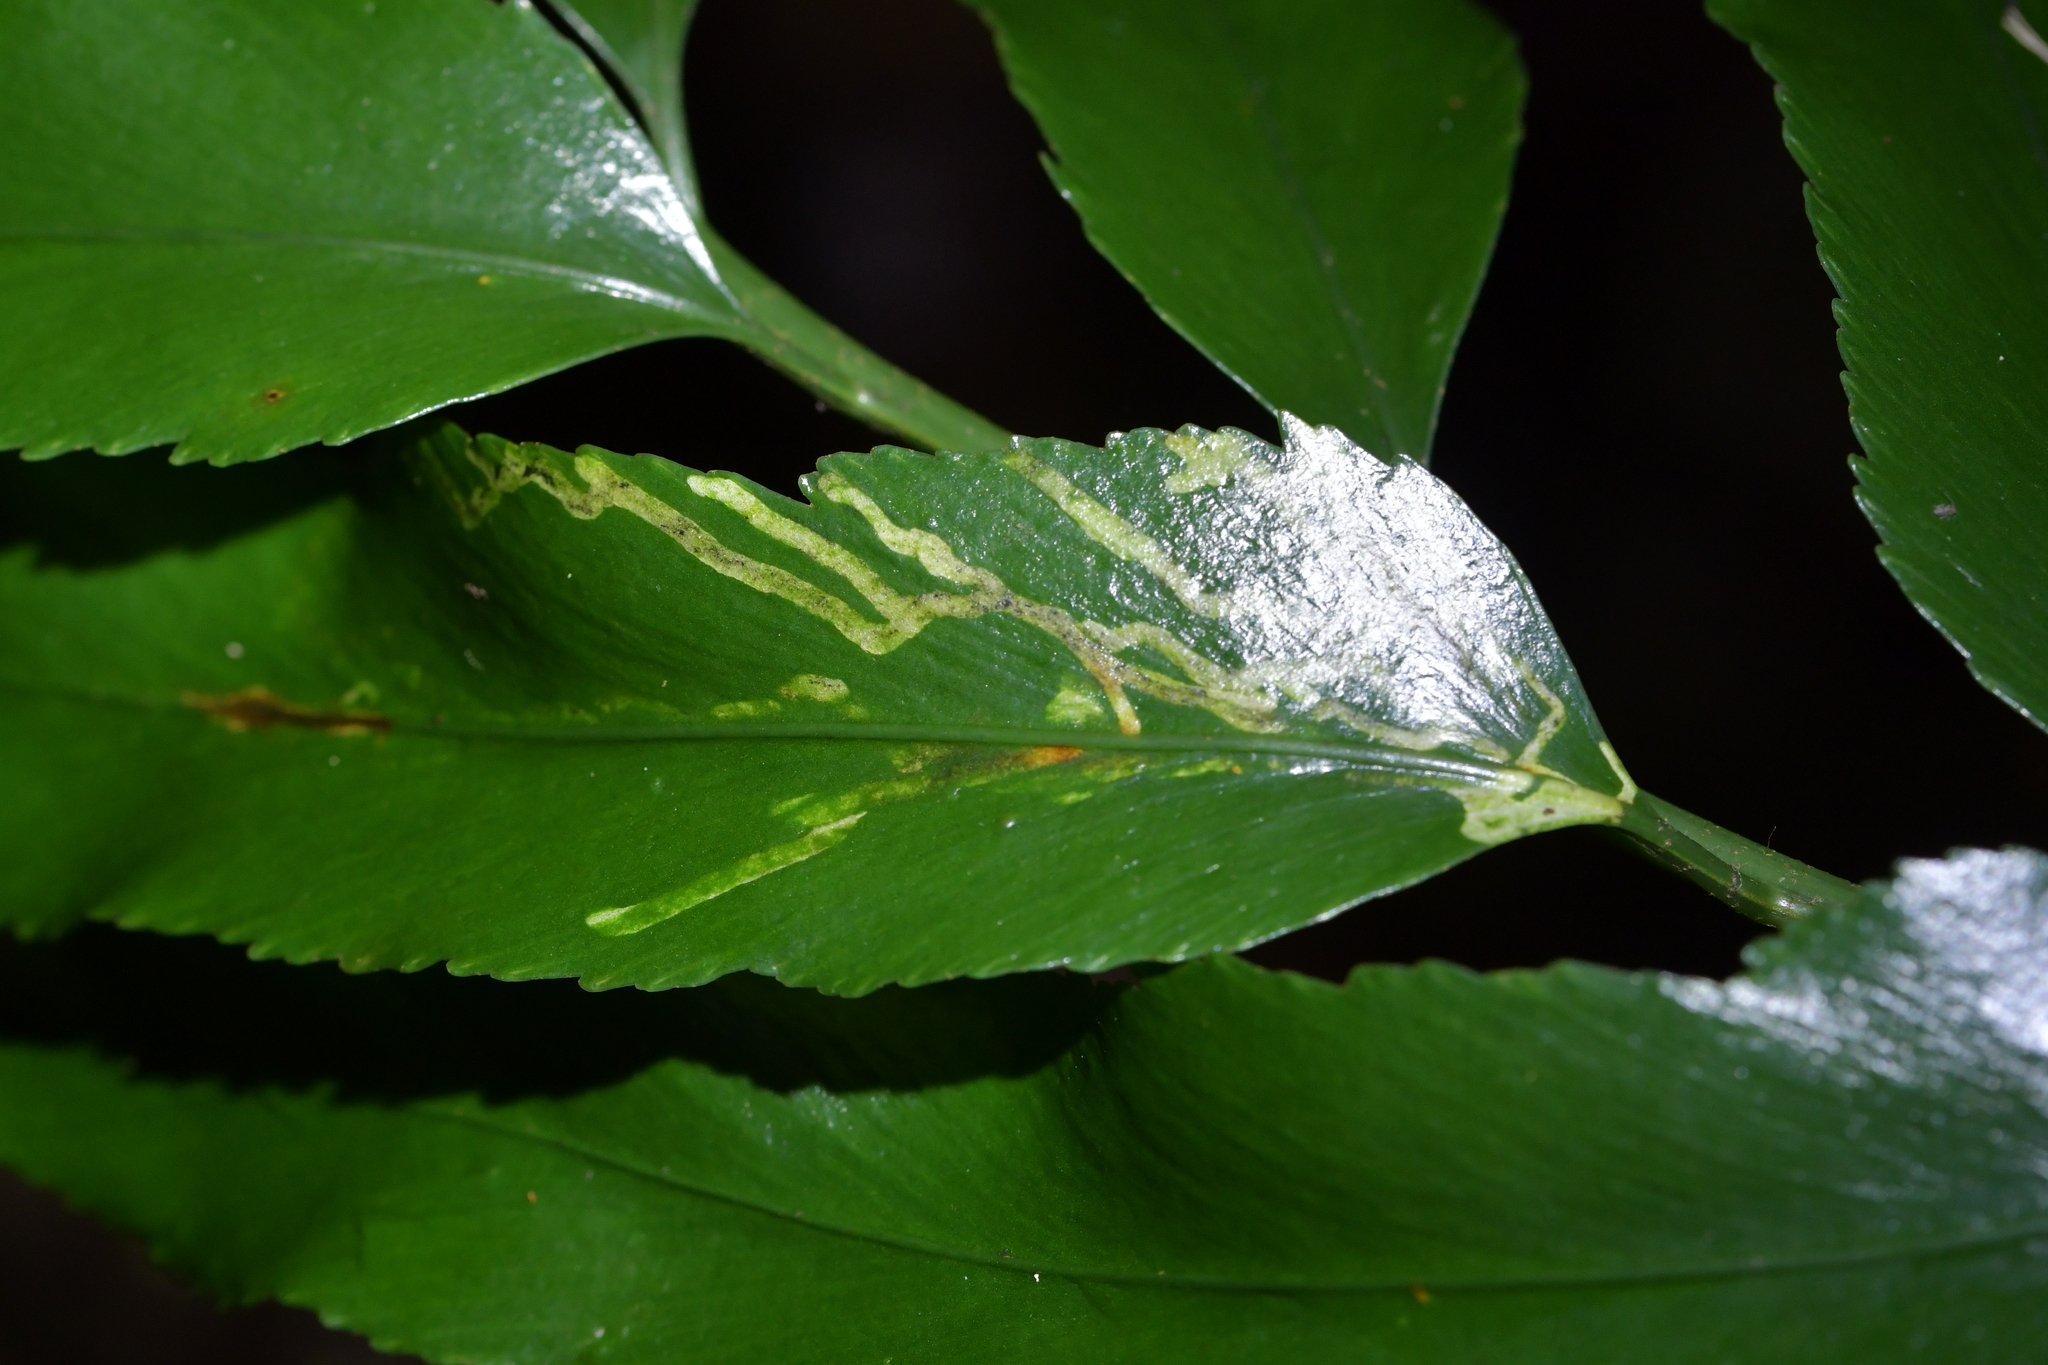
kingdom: Animalia
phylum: Arthropoda
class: Insecta
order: Diptera
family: Agromyzidae
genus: Phytoliriomyza
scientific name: Phytoliriomyza flavopleura
